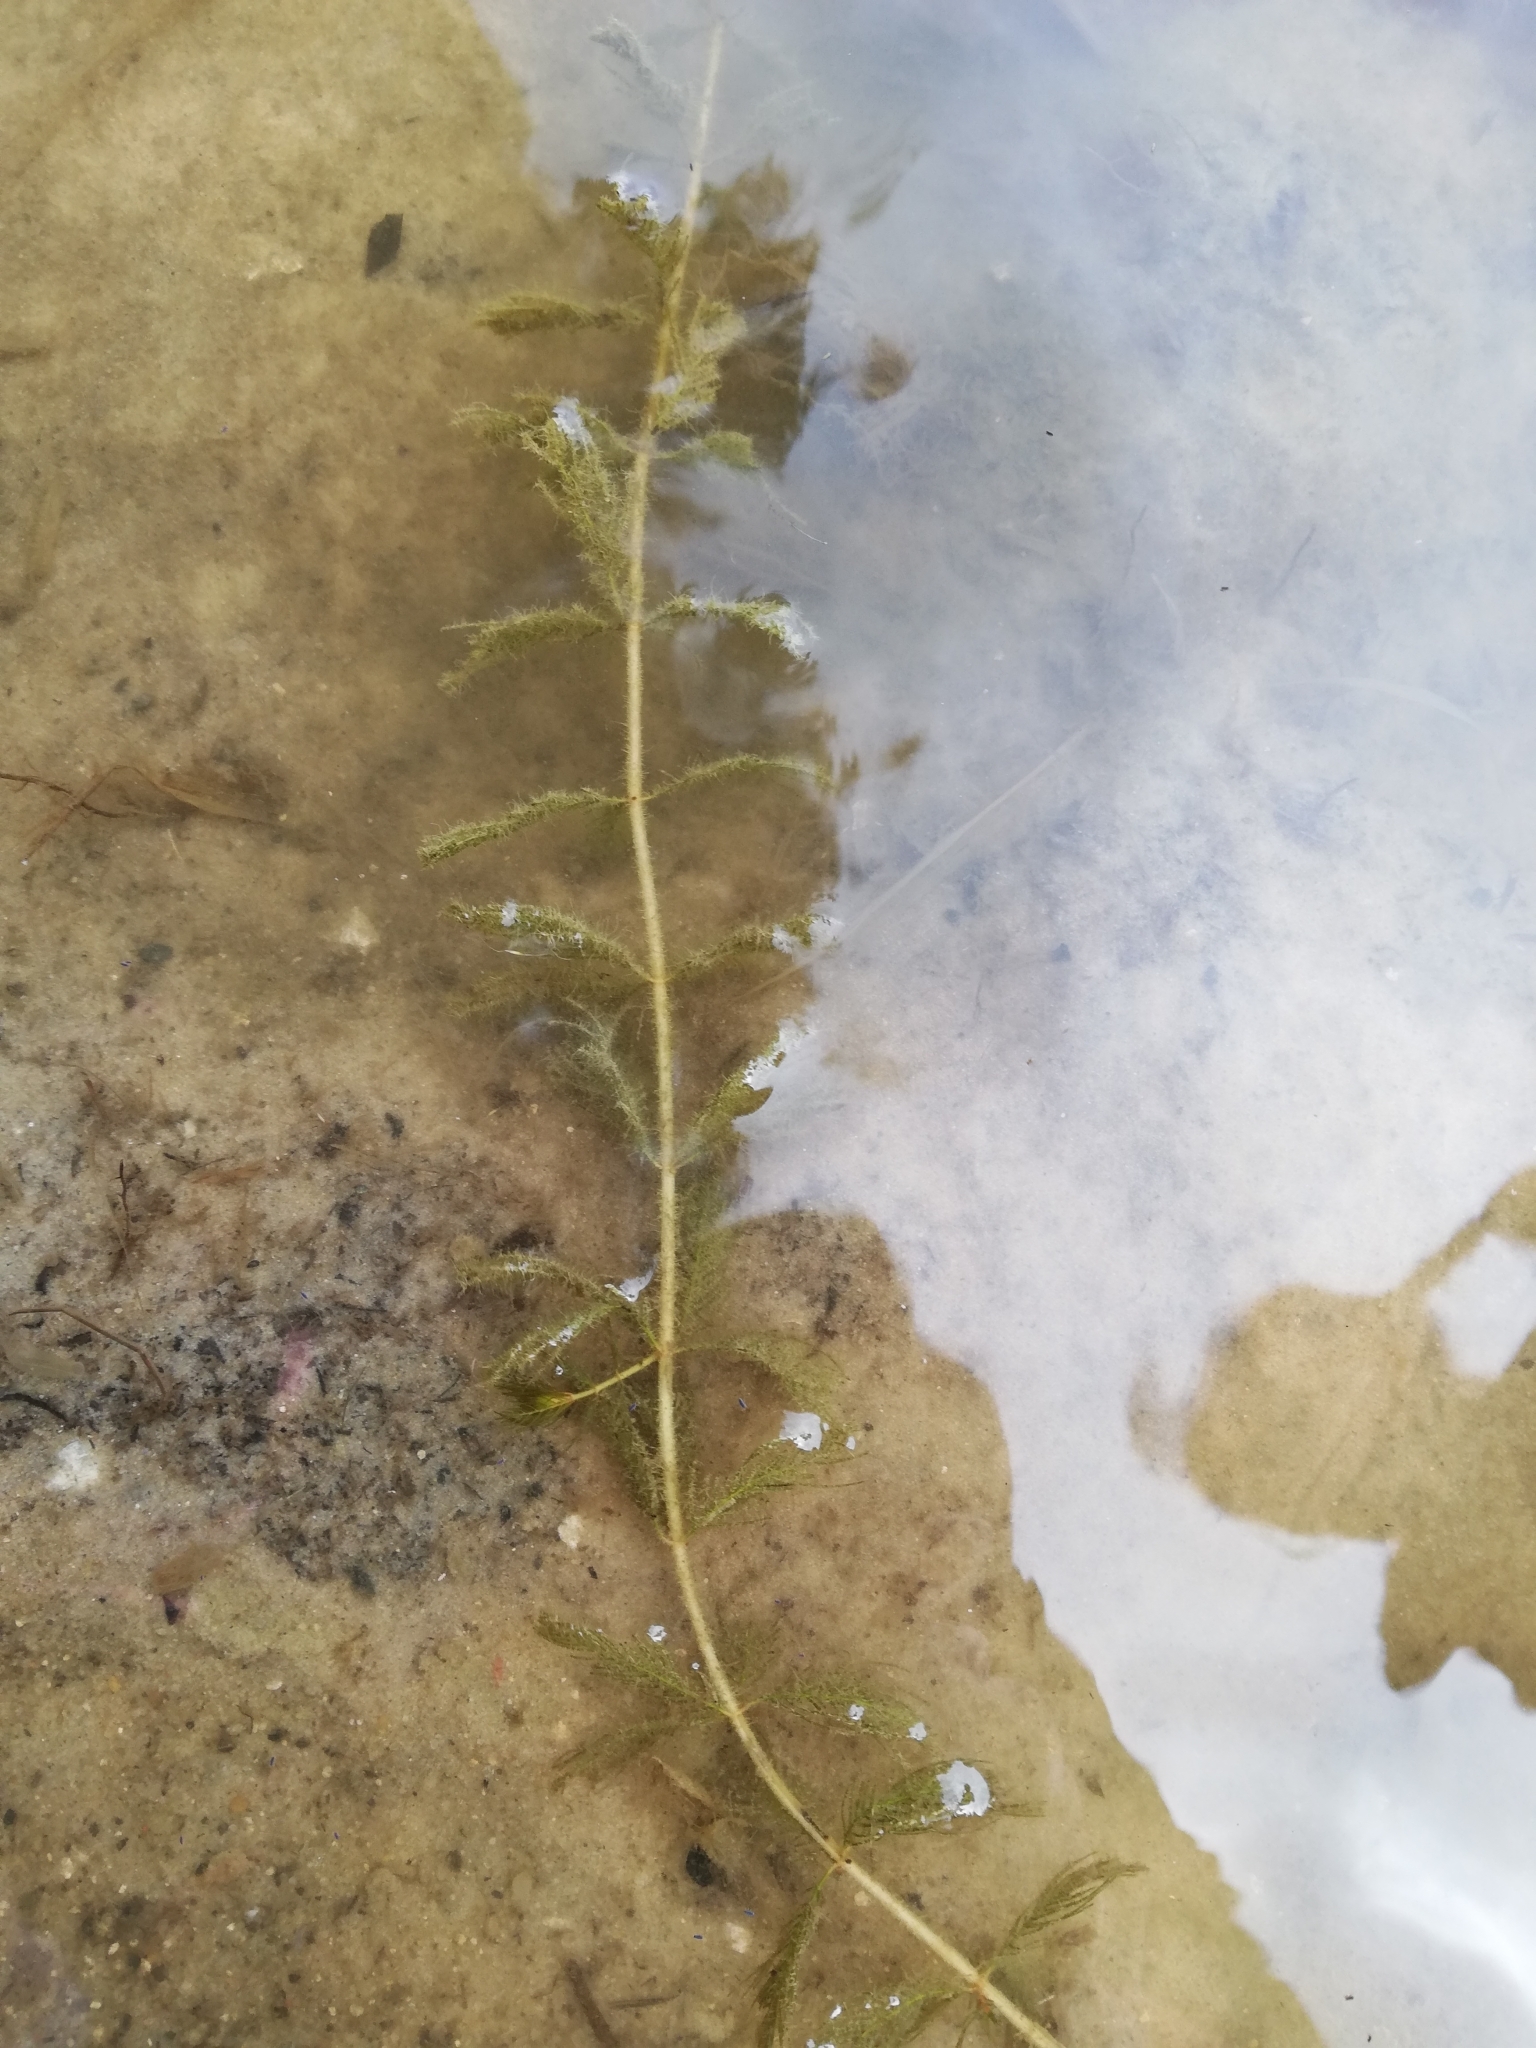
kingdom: Plantae
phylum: Tracheophyta
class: Magnoliopsida
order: Saxifragales
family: Haloragaceae
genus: Myriophyllum
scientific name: Myriophyllum spicatum
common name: Spiked water-milfoil
